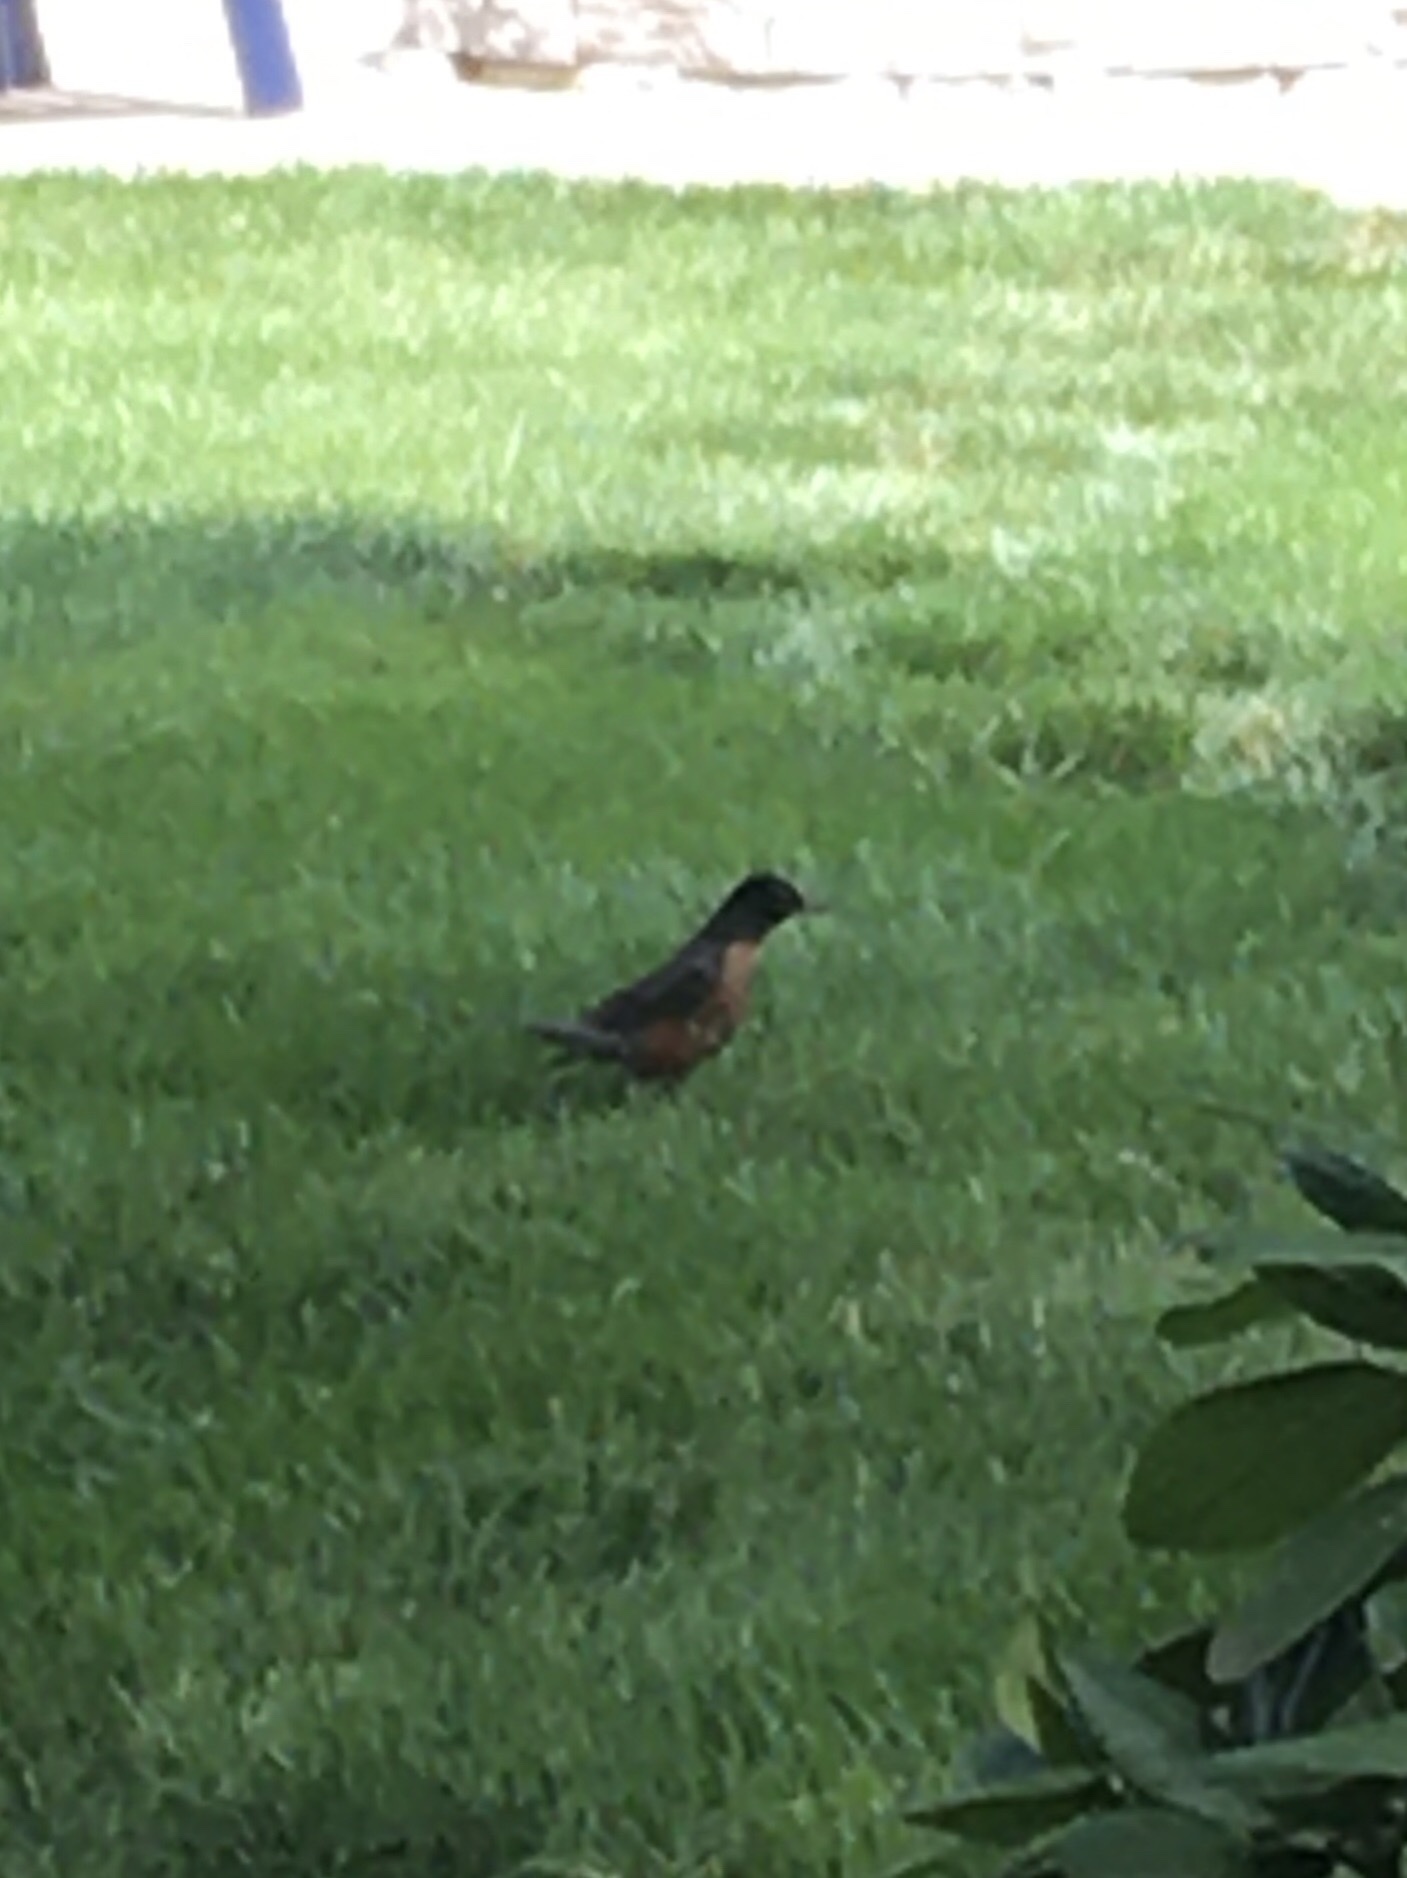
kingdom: Animalia
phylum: Chordata
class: Aves
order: Passeriformes
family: Turdidae
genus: Turdus
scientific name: Turdus migratorius
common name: American robin
